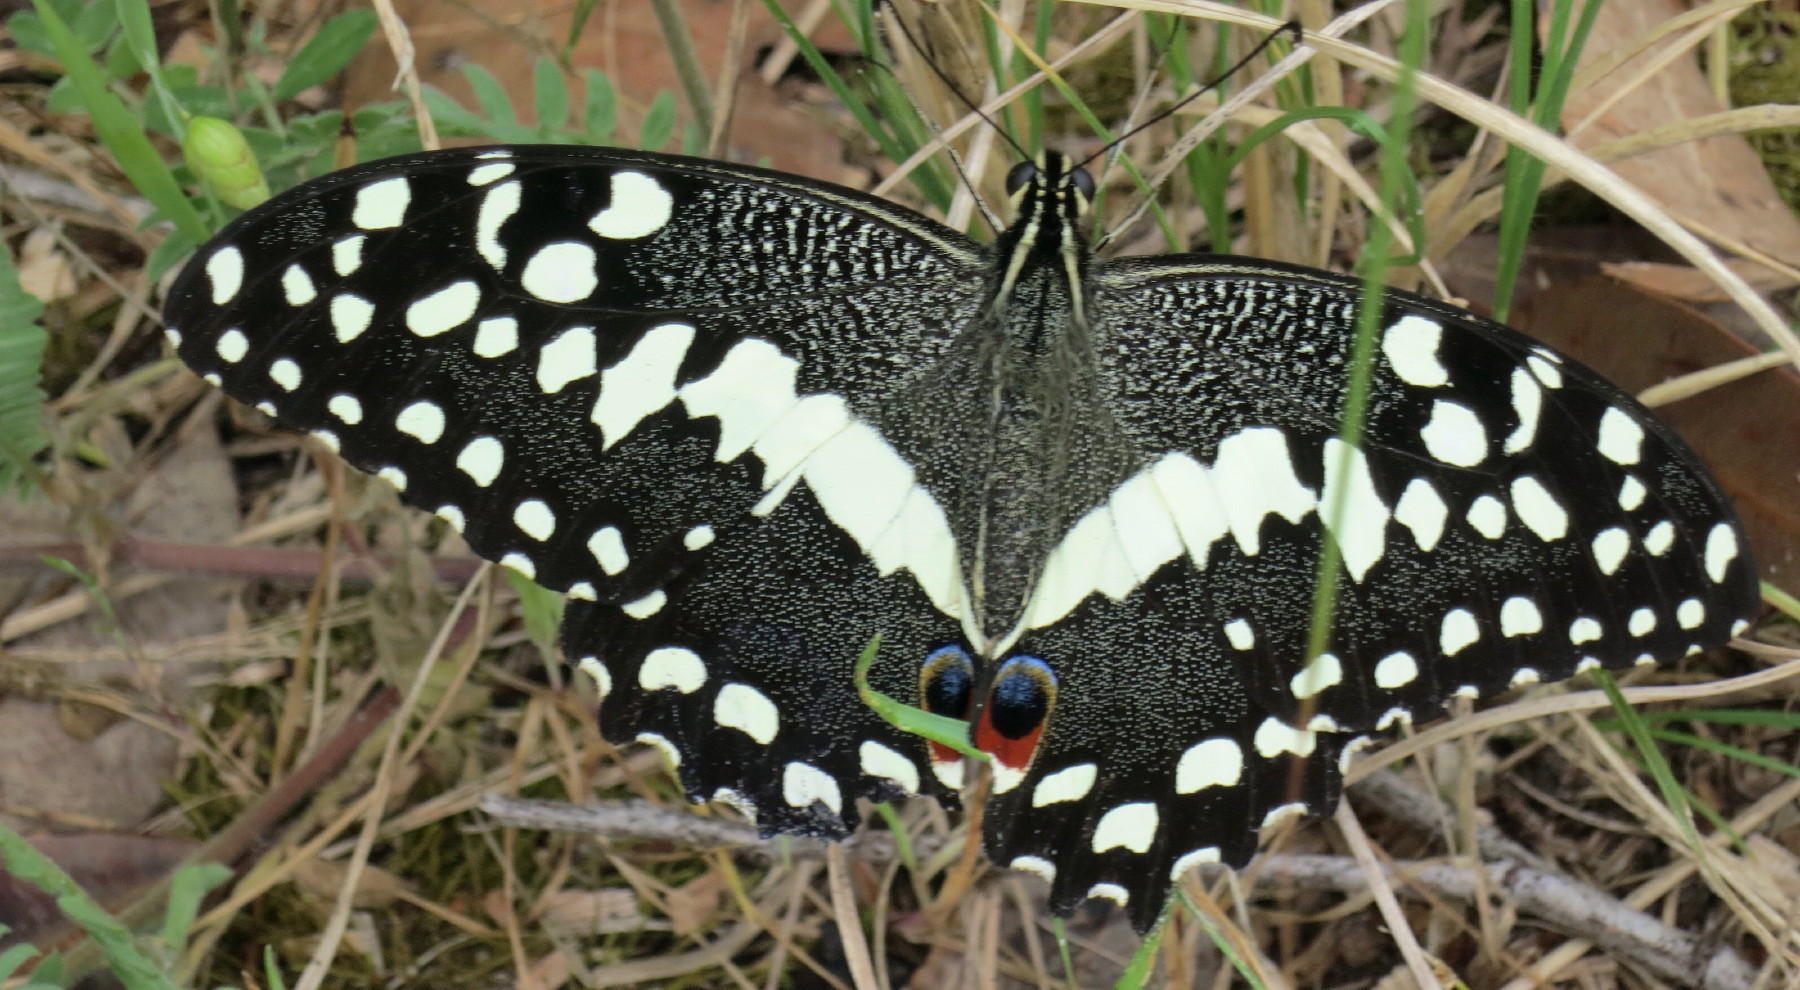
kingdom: Animalia
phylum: Arthropoda
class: Insecta
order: Lepidoptera
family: Papilionidae
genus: Papilio
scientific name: Papilio demodocus
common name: Christmas butterfly
